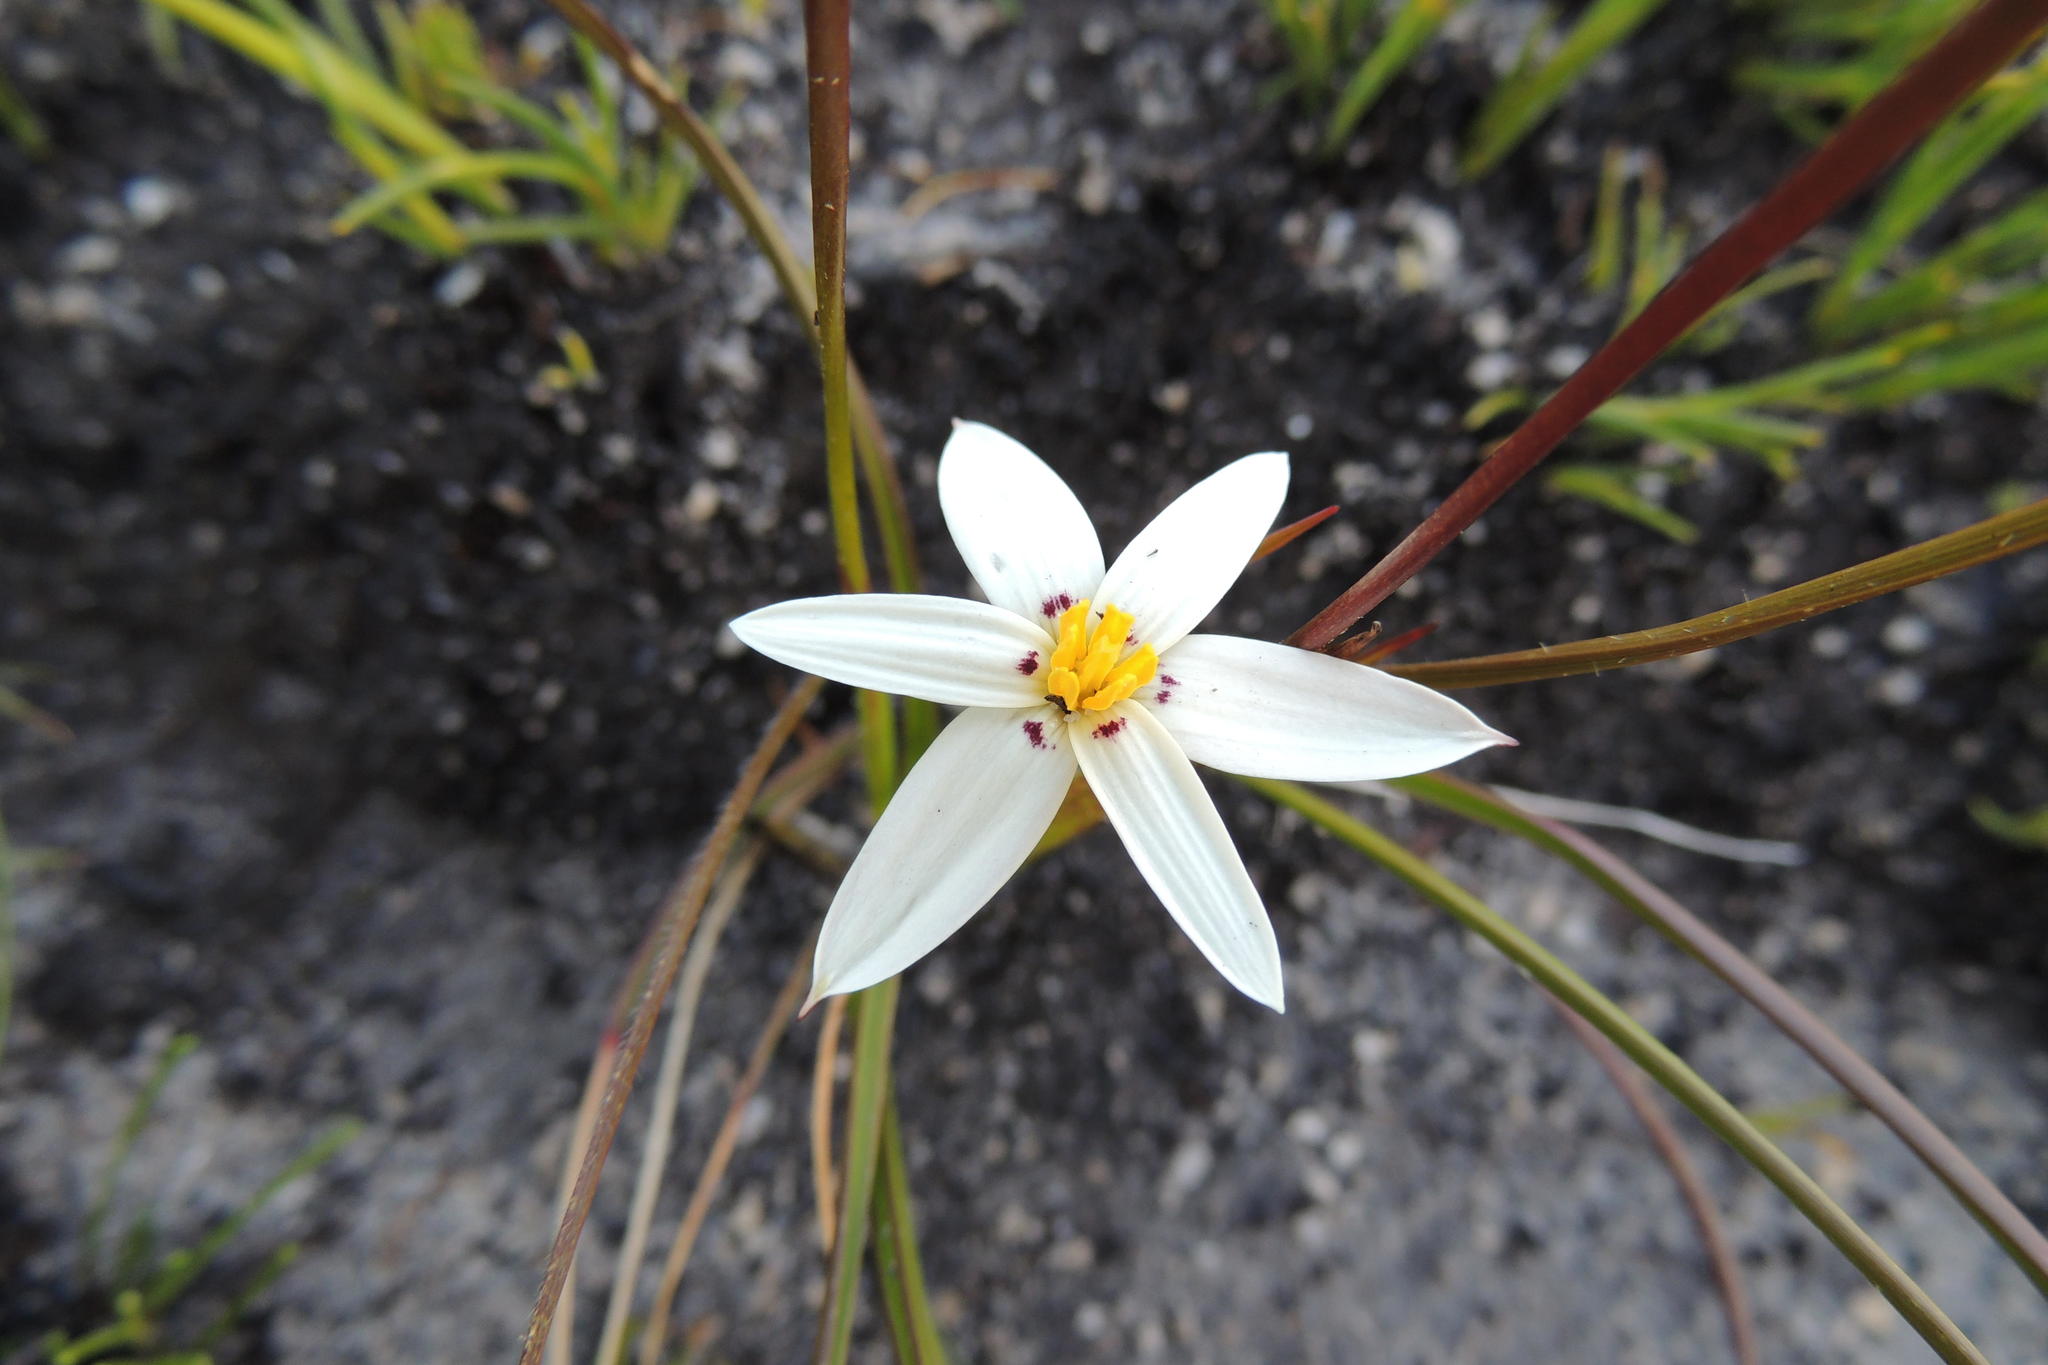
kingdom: Plantae
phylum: Tracheophyta
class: Liliopsida
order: Asparagales
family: Hypoxidaceae
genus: Pauridia
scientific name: Pauridia capensis
